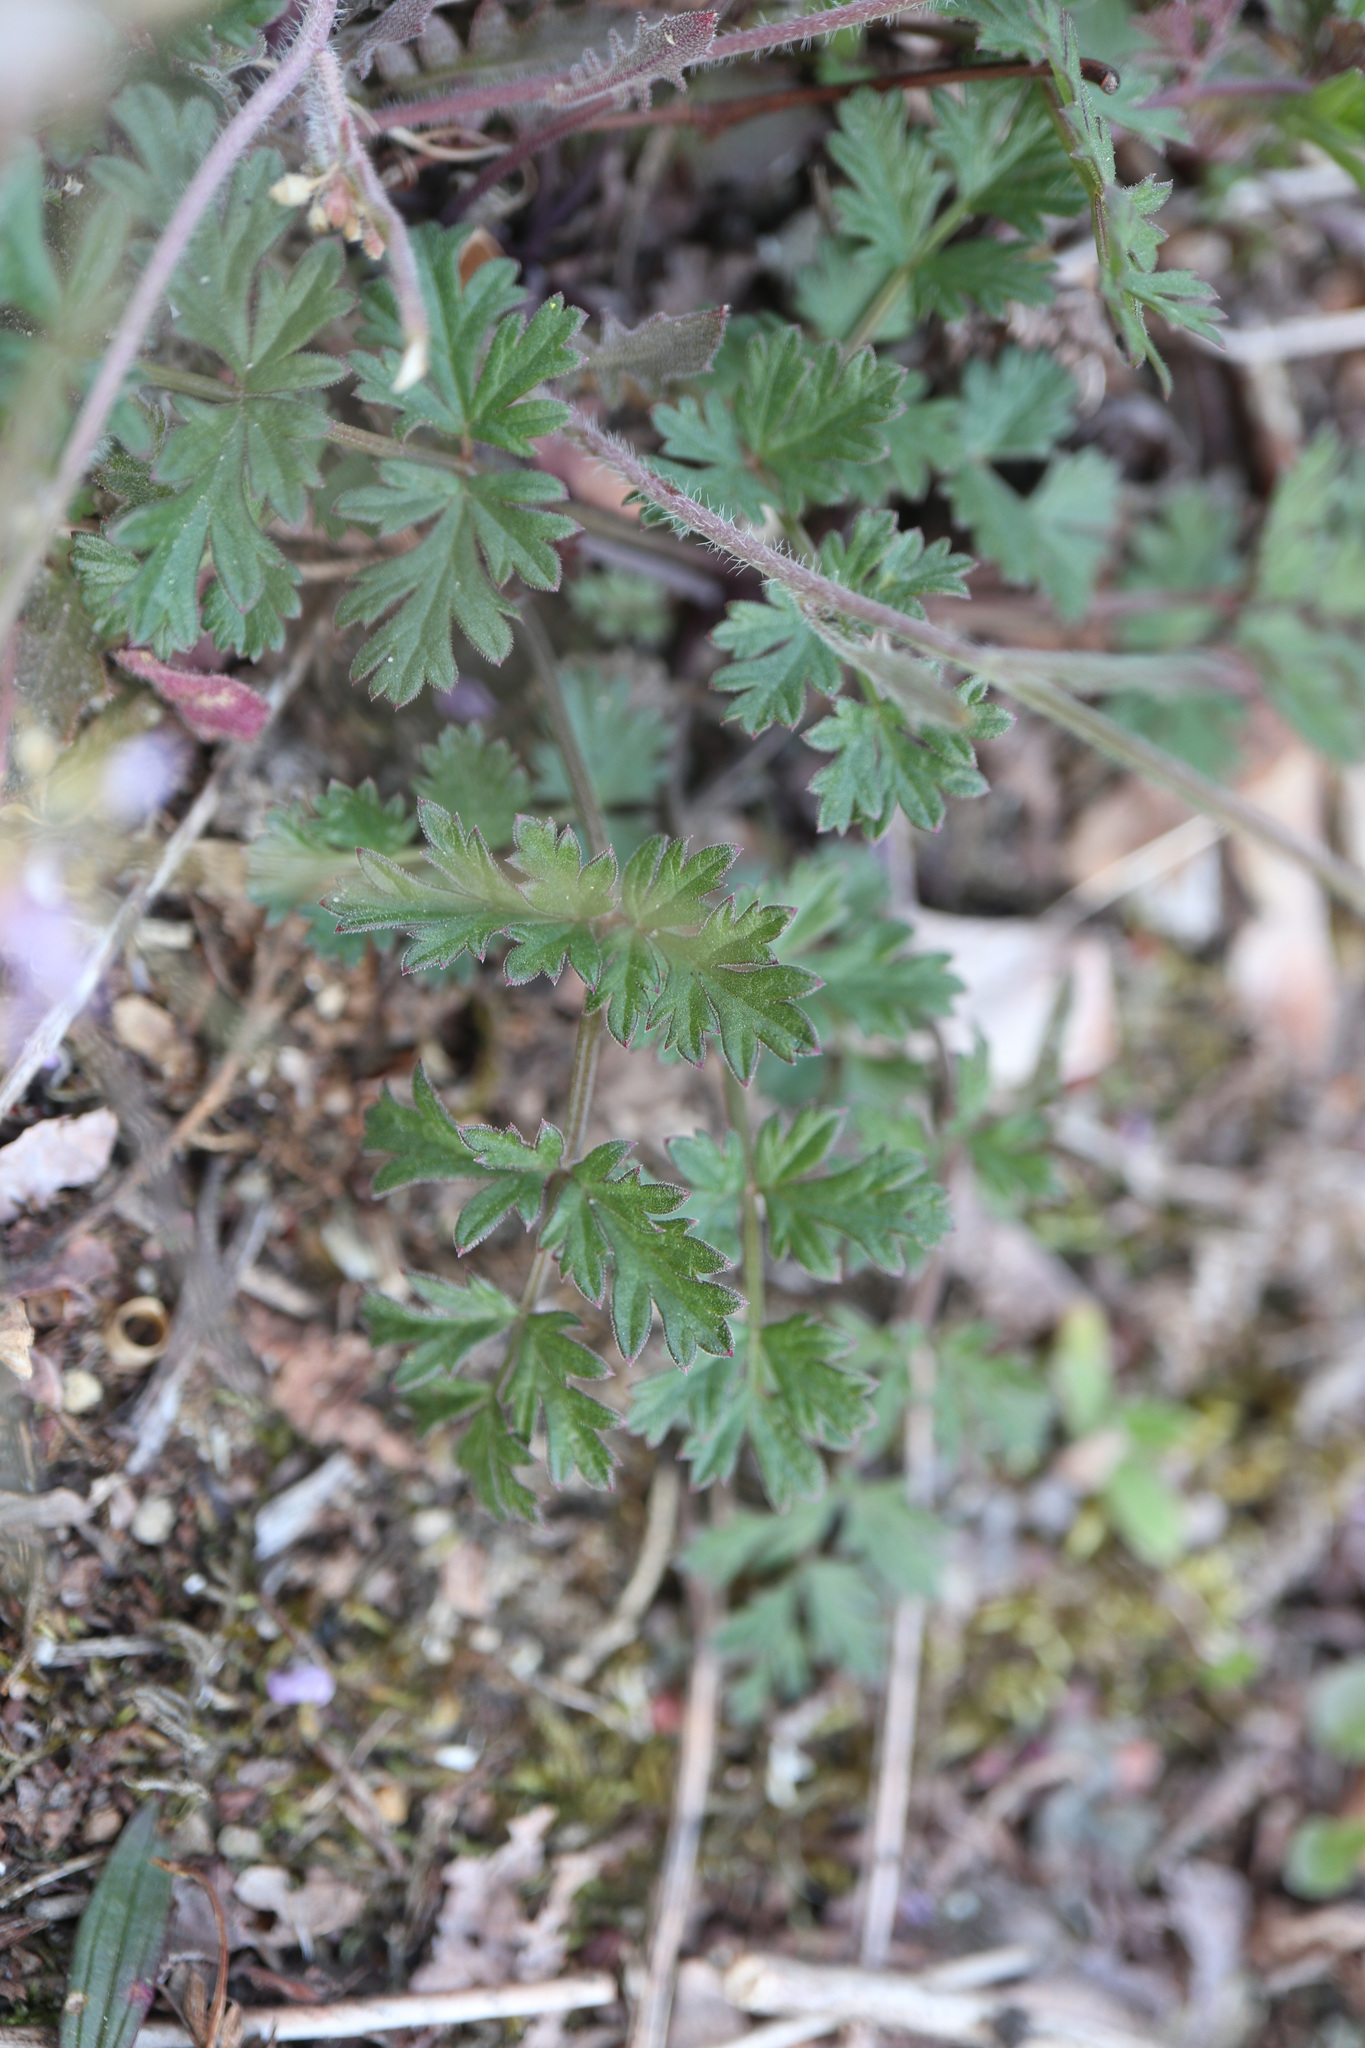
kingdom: Plantae
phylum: Tracheophyta
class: Magnoliopsida
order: Geraniales
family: Geraniaceae
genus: Erodium
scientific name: Erodium cicutarium
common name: Common stork's-bill
